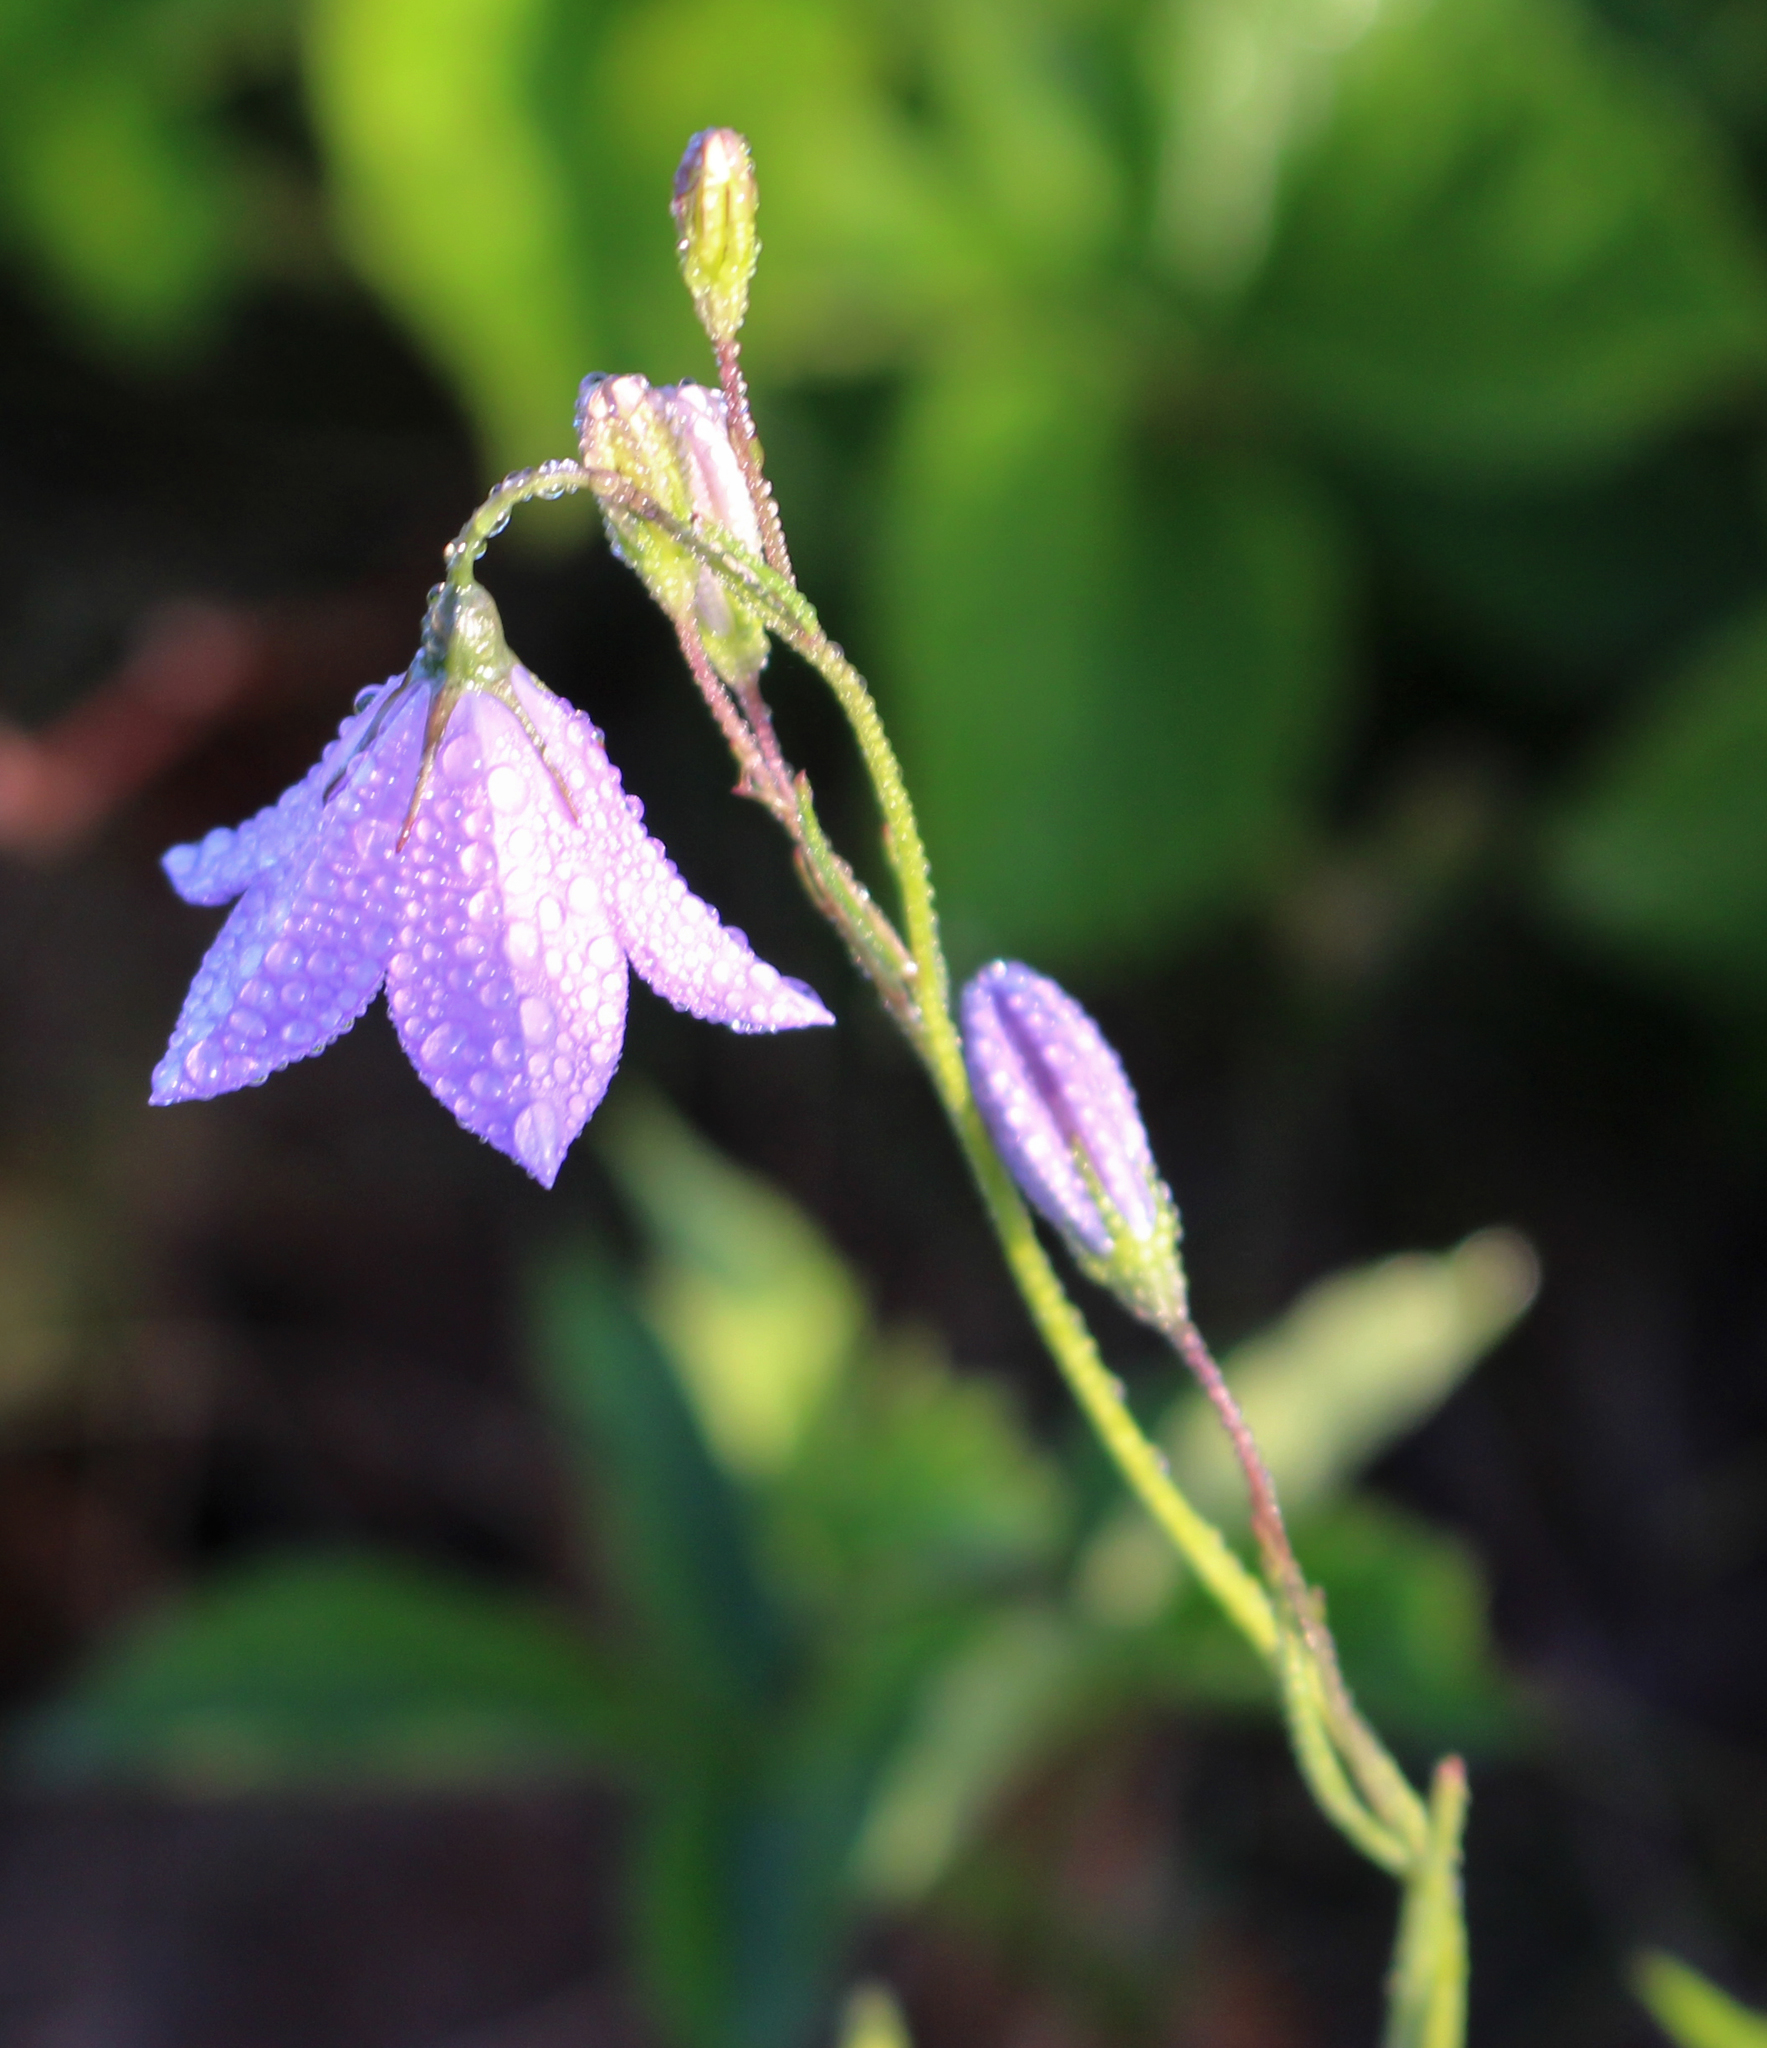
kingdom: Plantae
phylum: Tracheophyta
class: Magnoliopsida
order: Asterales
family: Campanulaceae
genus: Campanula
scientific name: Campanula intercedens
